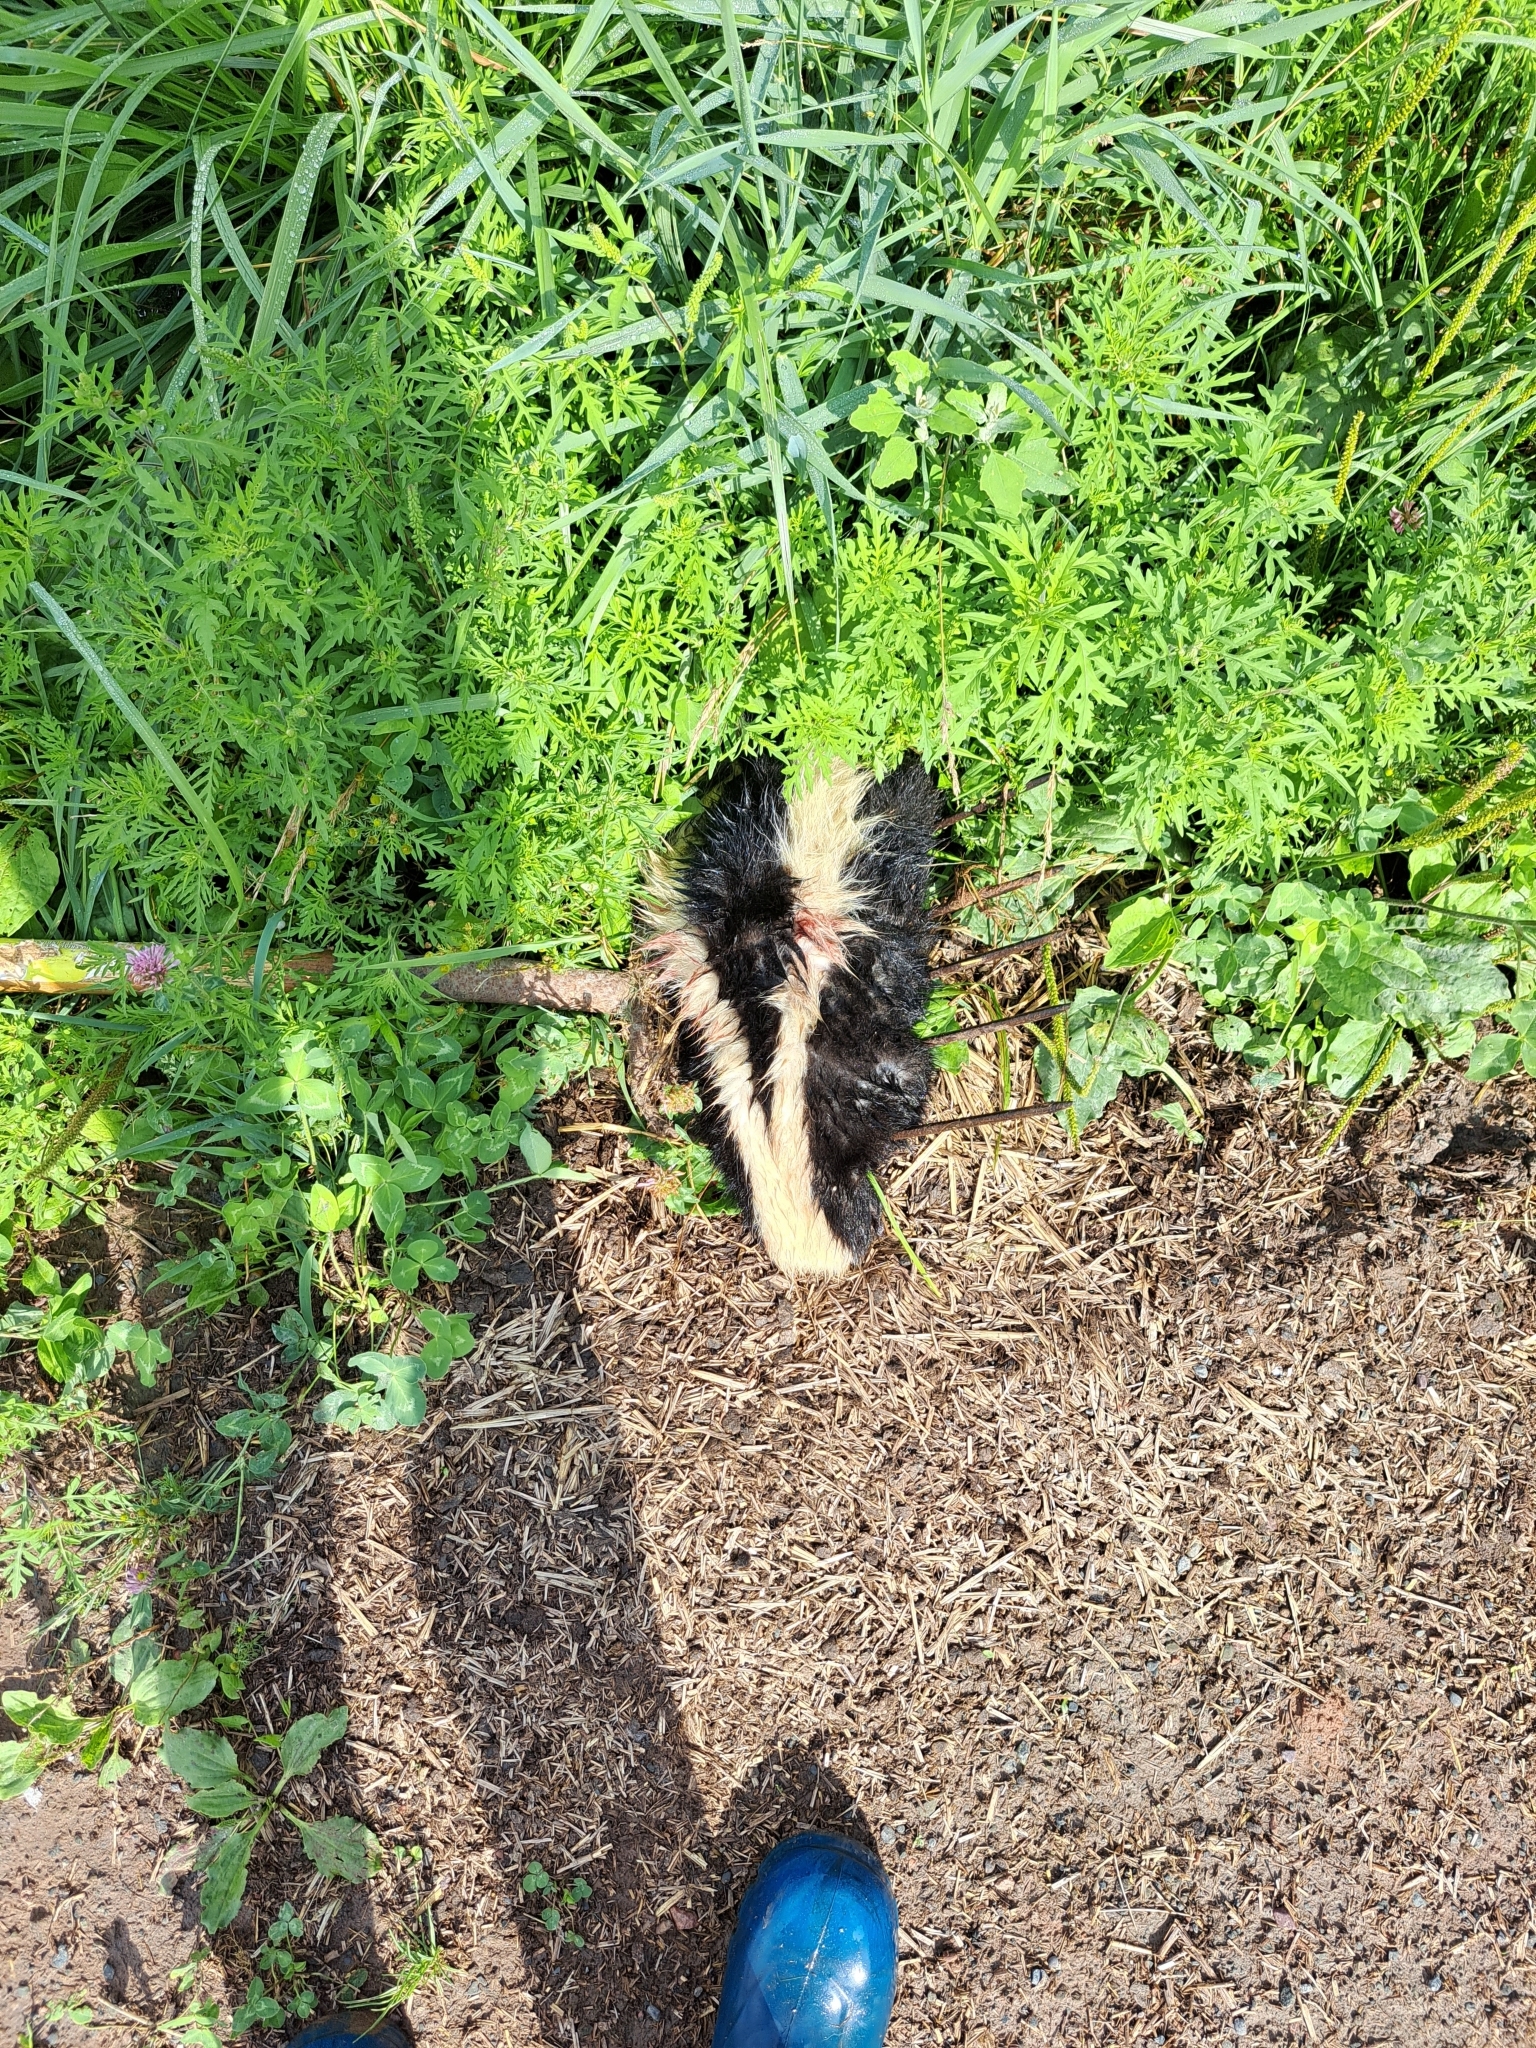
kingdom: Animalia
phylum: Chordata
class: Mammalia
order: Carnivora
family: Mephitidae
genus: Mephitis
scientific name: Mephitis mephitis
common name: Striped skunk
